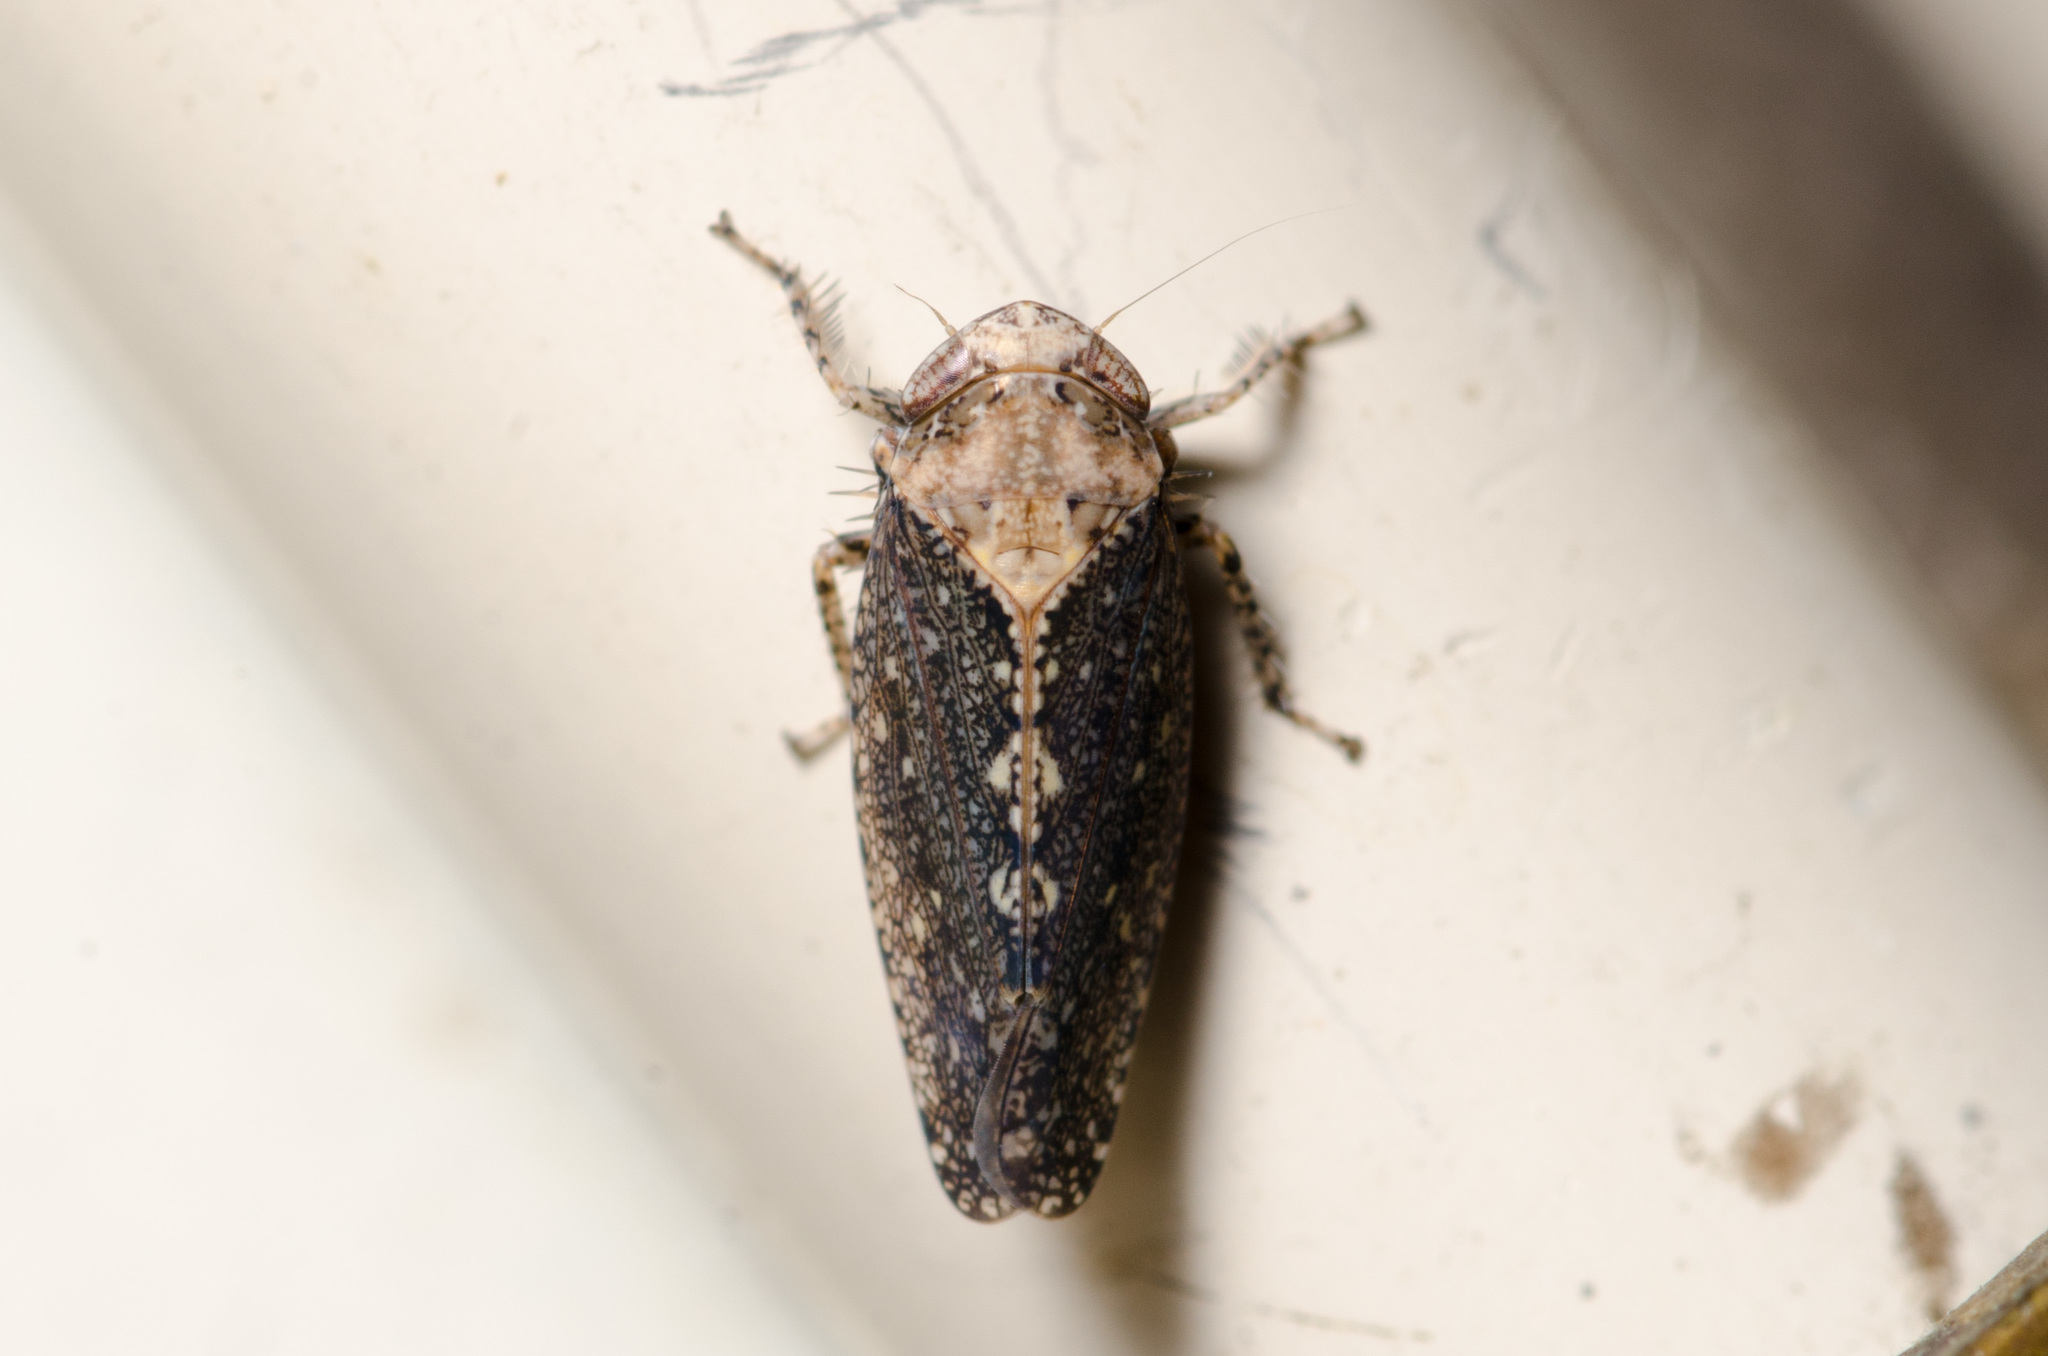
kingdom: Animalia
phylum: Arthropoda
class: Insecta
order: Hemiptera
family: Cicadellidae
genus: Excultanus
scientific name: Excultanus excultus
